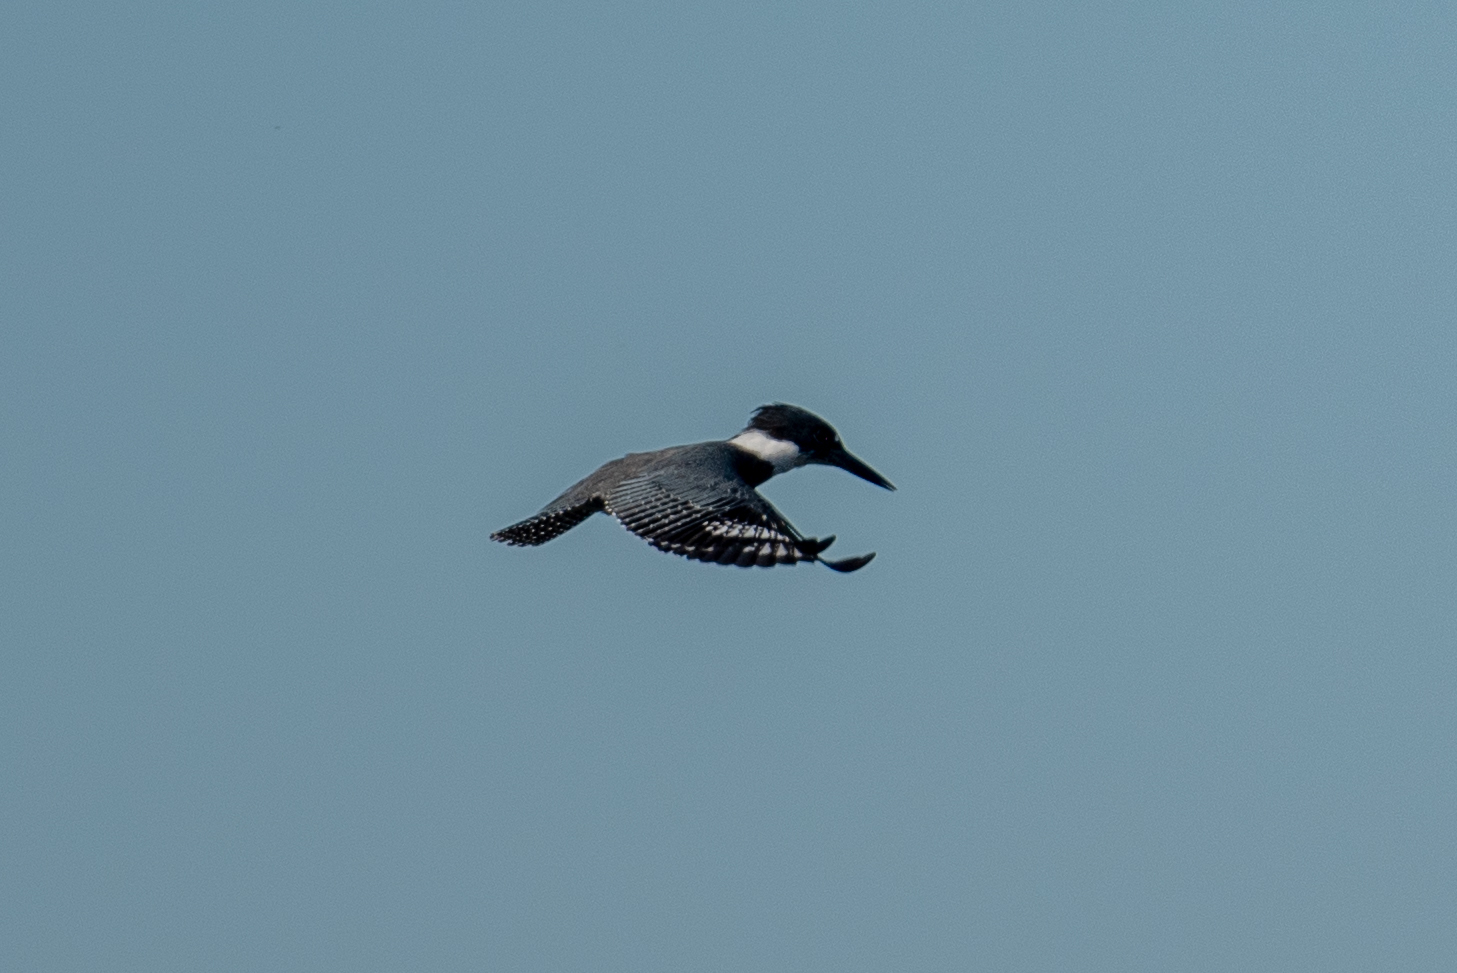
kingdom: Animalia
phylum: Chordata
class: Aves
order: Coraciiformes
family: Alcedinidae
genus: Megaceryle
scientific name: Megaceryle alcyon
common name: Belted kingfisher
